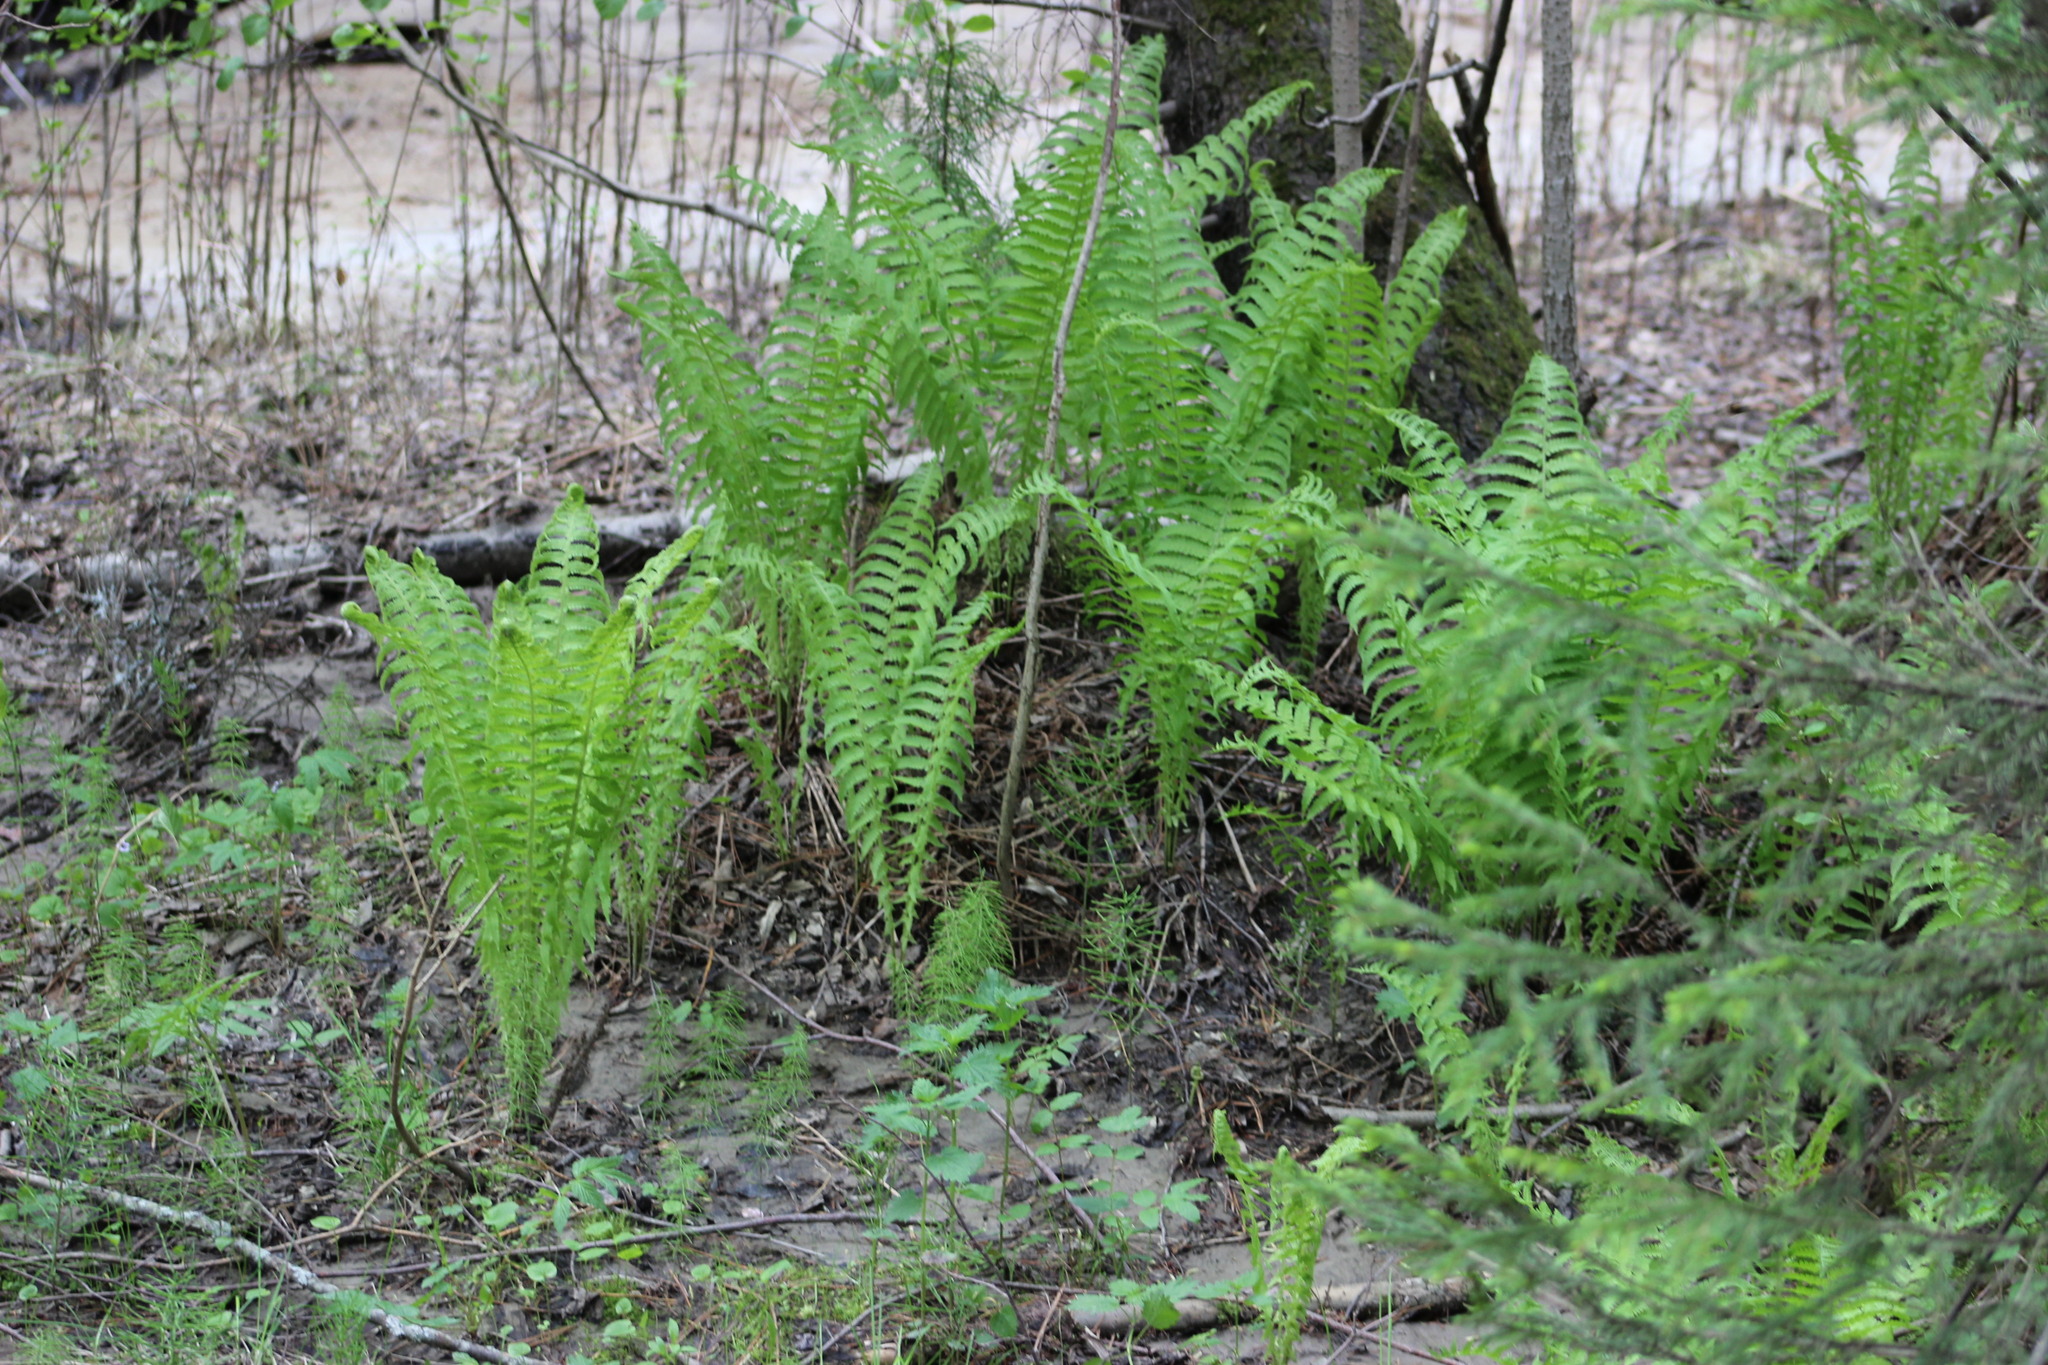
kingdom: Plantae
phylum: Tracheophyta
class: Polypodiopsida
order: Polypodiales
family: Onocleaceae
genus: Matteuccia
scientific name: Matteuccia struthiopteris
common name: Ostrich fern
